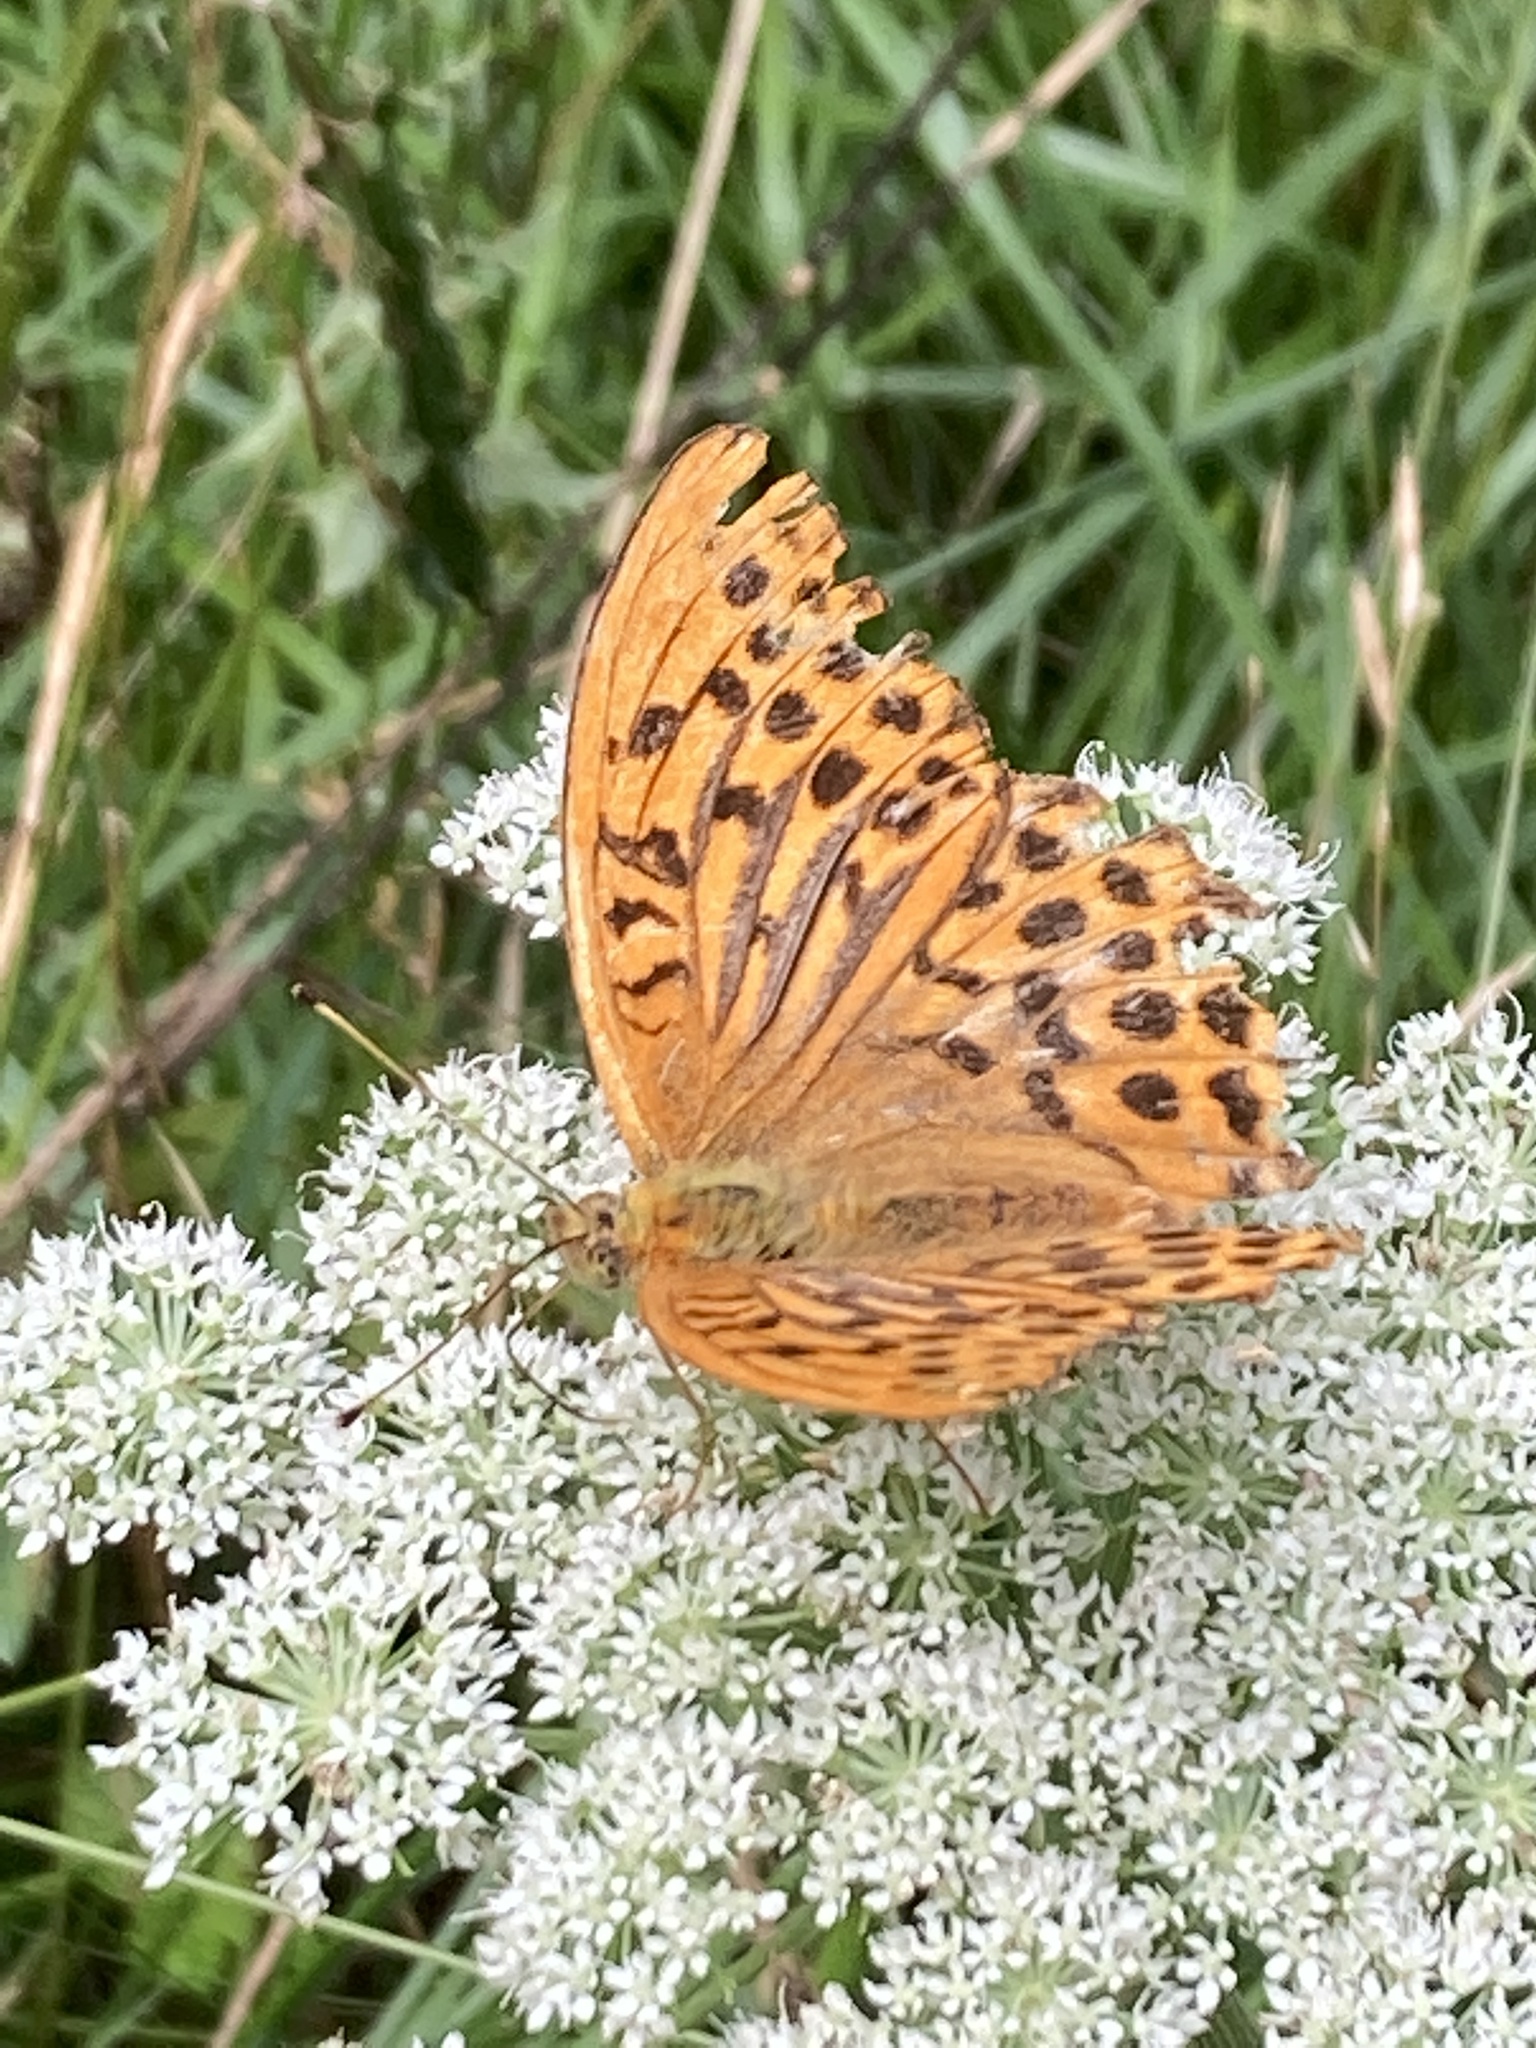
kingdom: Animalia
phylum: Arthropoda
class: Insecta
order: Lepidoptera
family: Nymphalidae
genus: Argynnis
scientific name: Argynnis paphia
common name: Silver-washed fritillary
